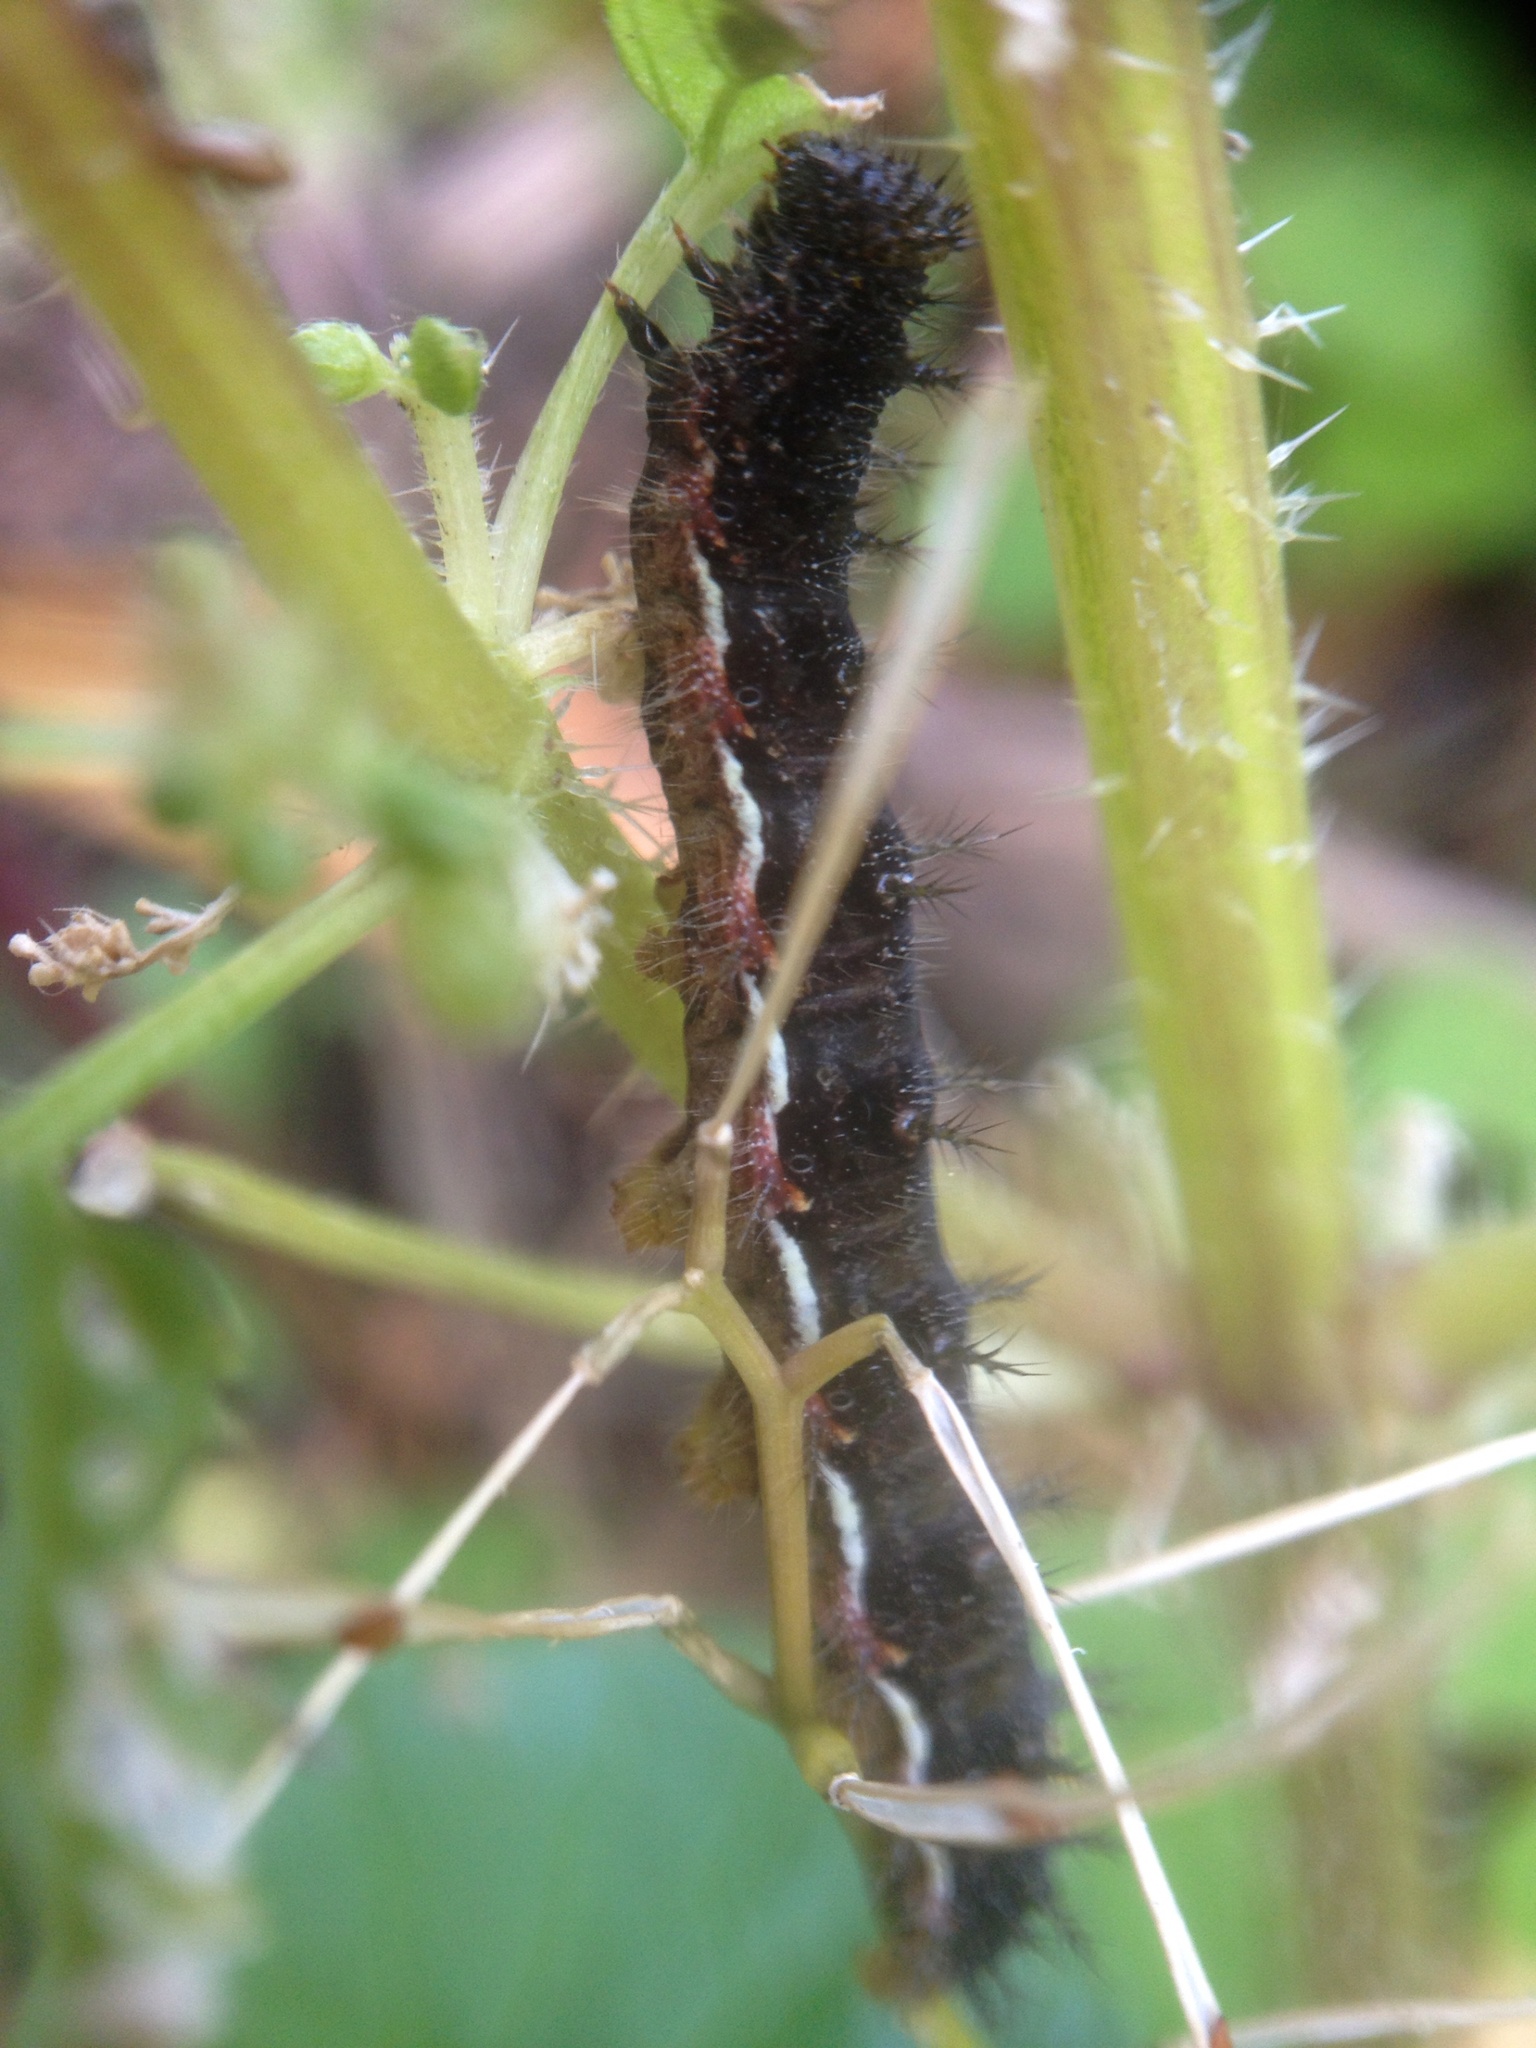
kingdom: Animalia
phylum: Arthropoda
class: Insecta
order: Lepidoptera
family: Nymphalidae
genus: Vanessa
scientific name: Vanessa itea
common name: Yellow admiral
